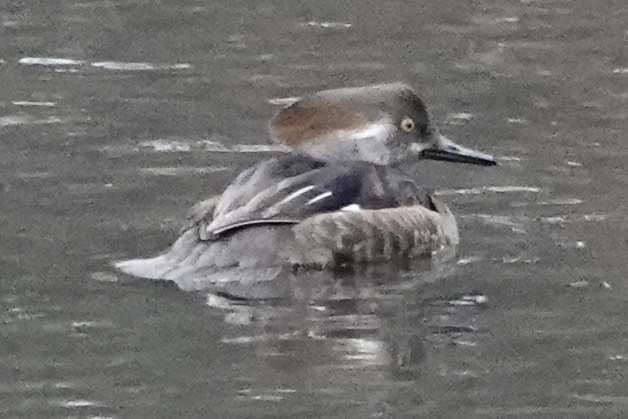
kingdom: Animalia
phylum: Chordata
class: Aves
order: Anseriformes
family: Anatidae
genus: Lophodytes
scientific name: Lophodytes cucullatus
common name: Hooded merganser
